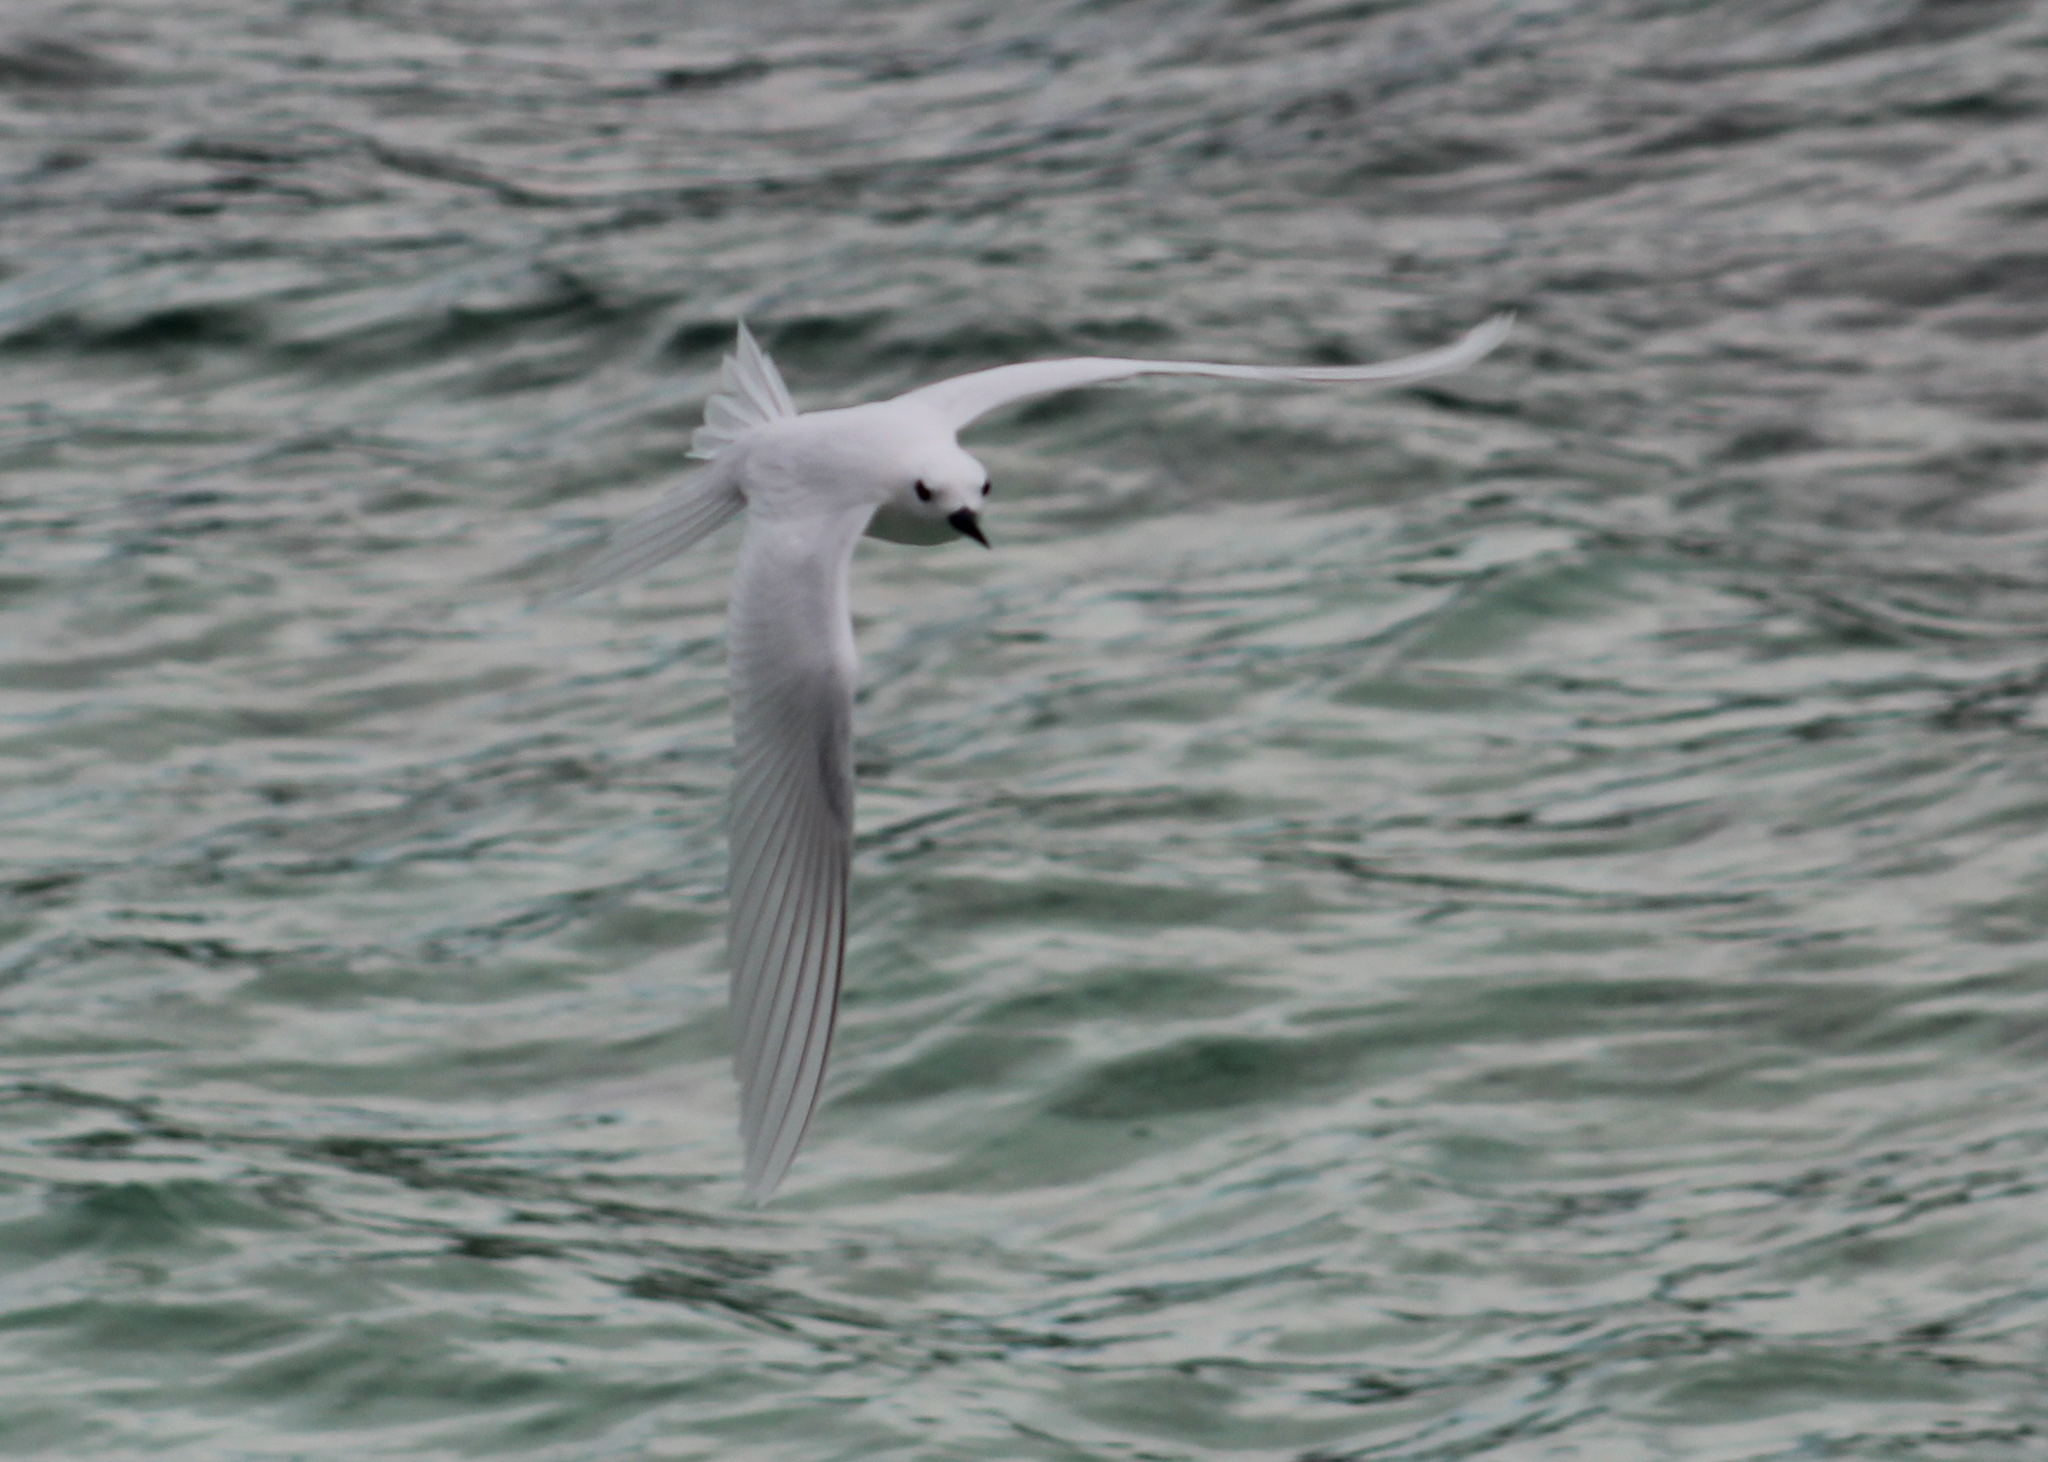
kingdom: Animalia
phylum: Chordata
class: Aves
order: Charadriiformes
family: Laridae
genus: Gygis
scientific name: Gygis alba
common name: White tern
